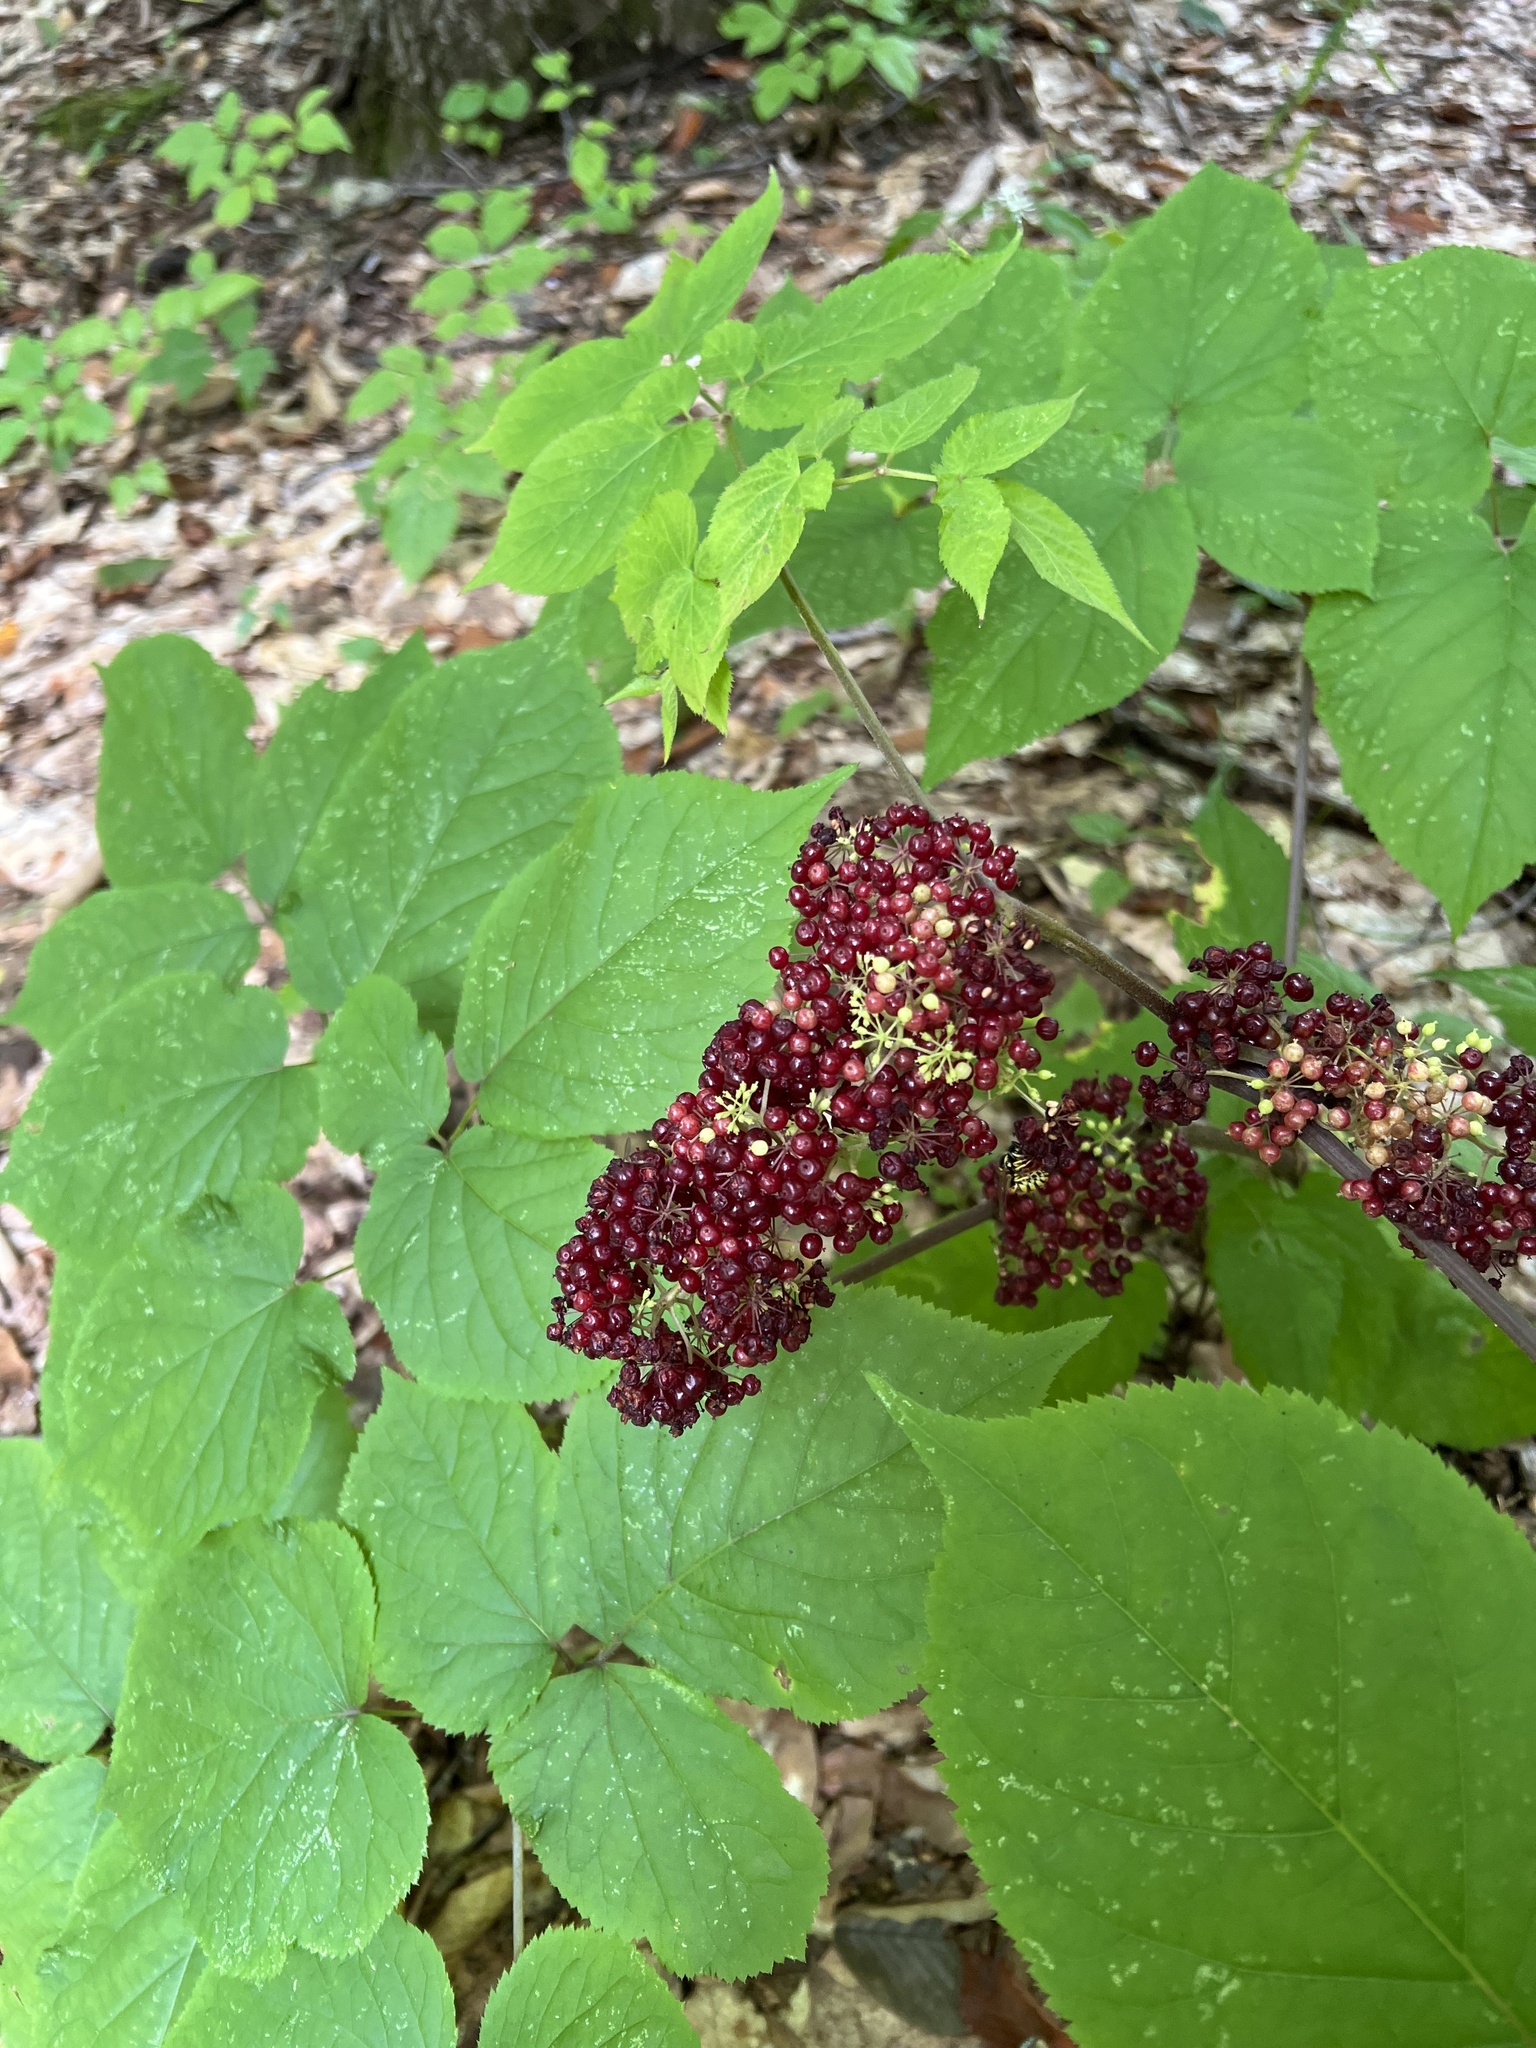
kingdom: Plantae
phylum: Tracheophyta
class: Magnoliopsida
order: Apiales
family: Araliaceae
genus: Aralia
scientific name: Aralia racemosa
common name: American-spikenard
